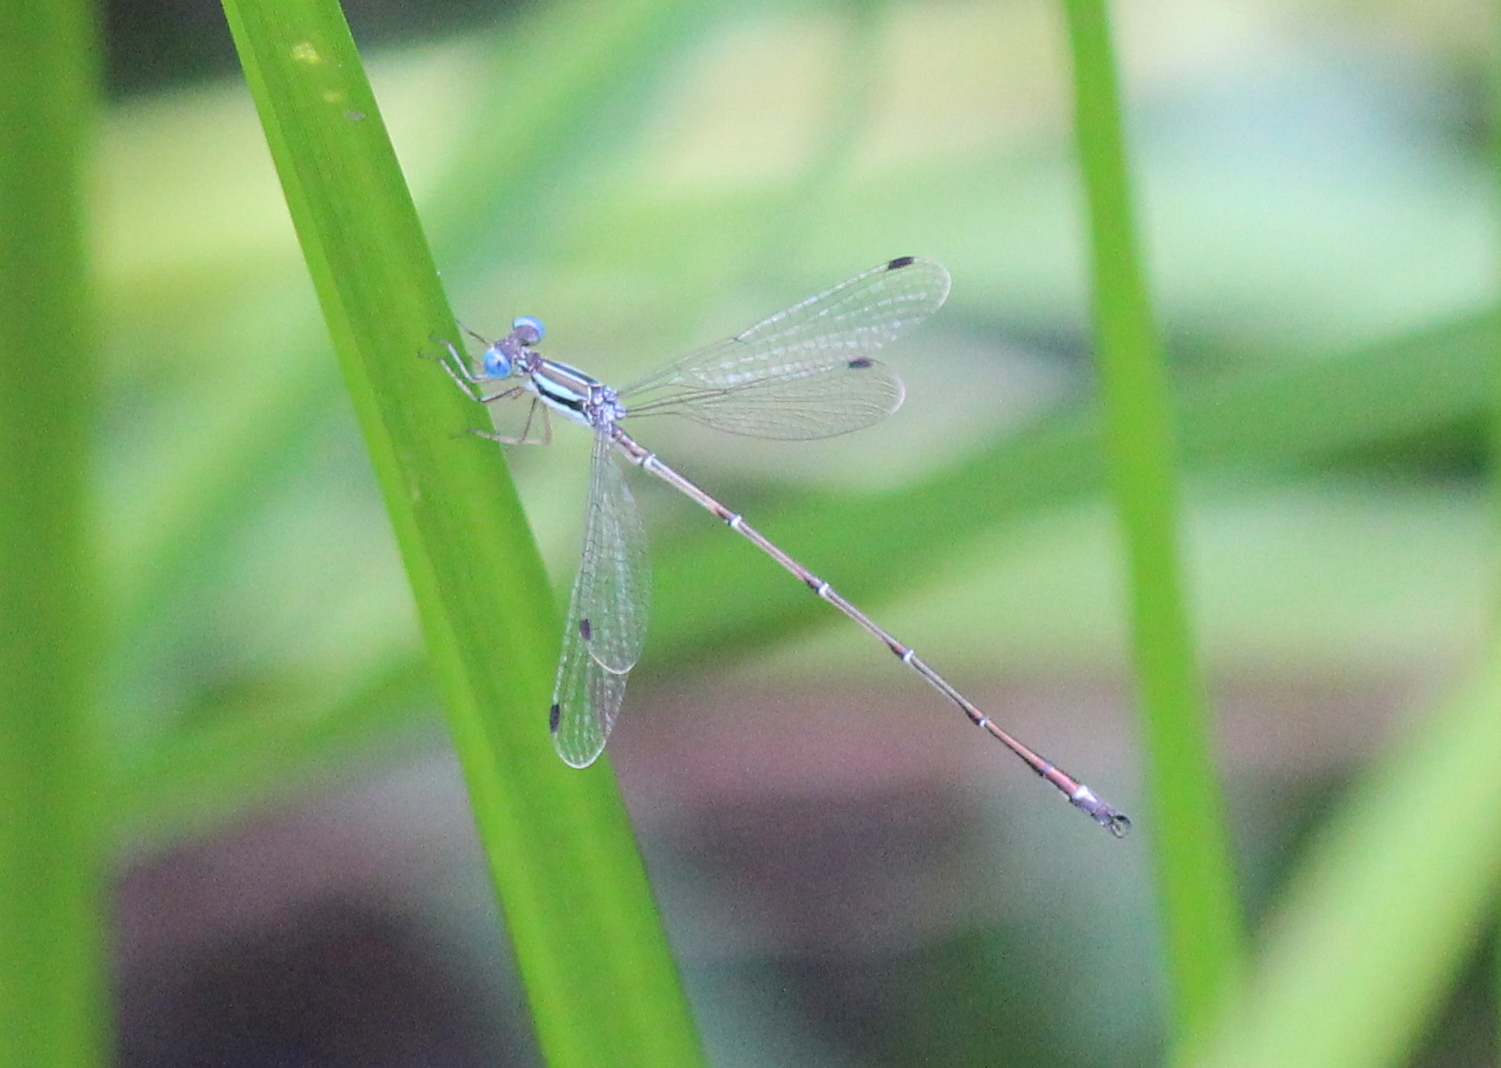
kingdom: Animalia
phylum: Arthropoda
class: Insecta
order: Odonata
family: Lestidae
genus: Lestes
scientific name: Lestes rectangularis
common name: Slender spreadwing
